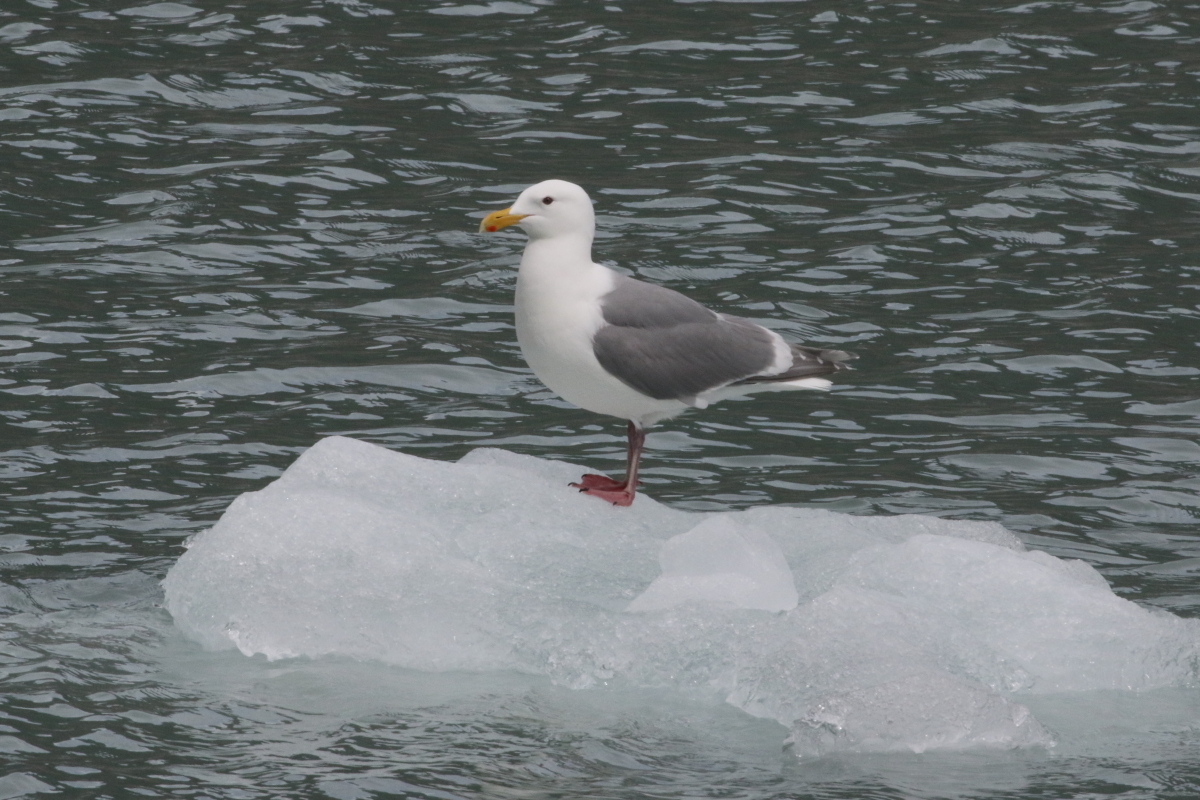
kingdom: Animalia
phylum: Chordata
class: Aves
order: Charadriiformes
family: Laridae
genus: Larus
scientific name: Larus glaucescens
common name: Glaucous-winged gull
